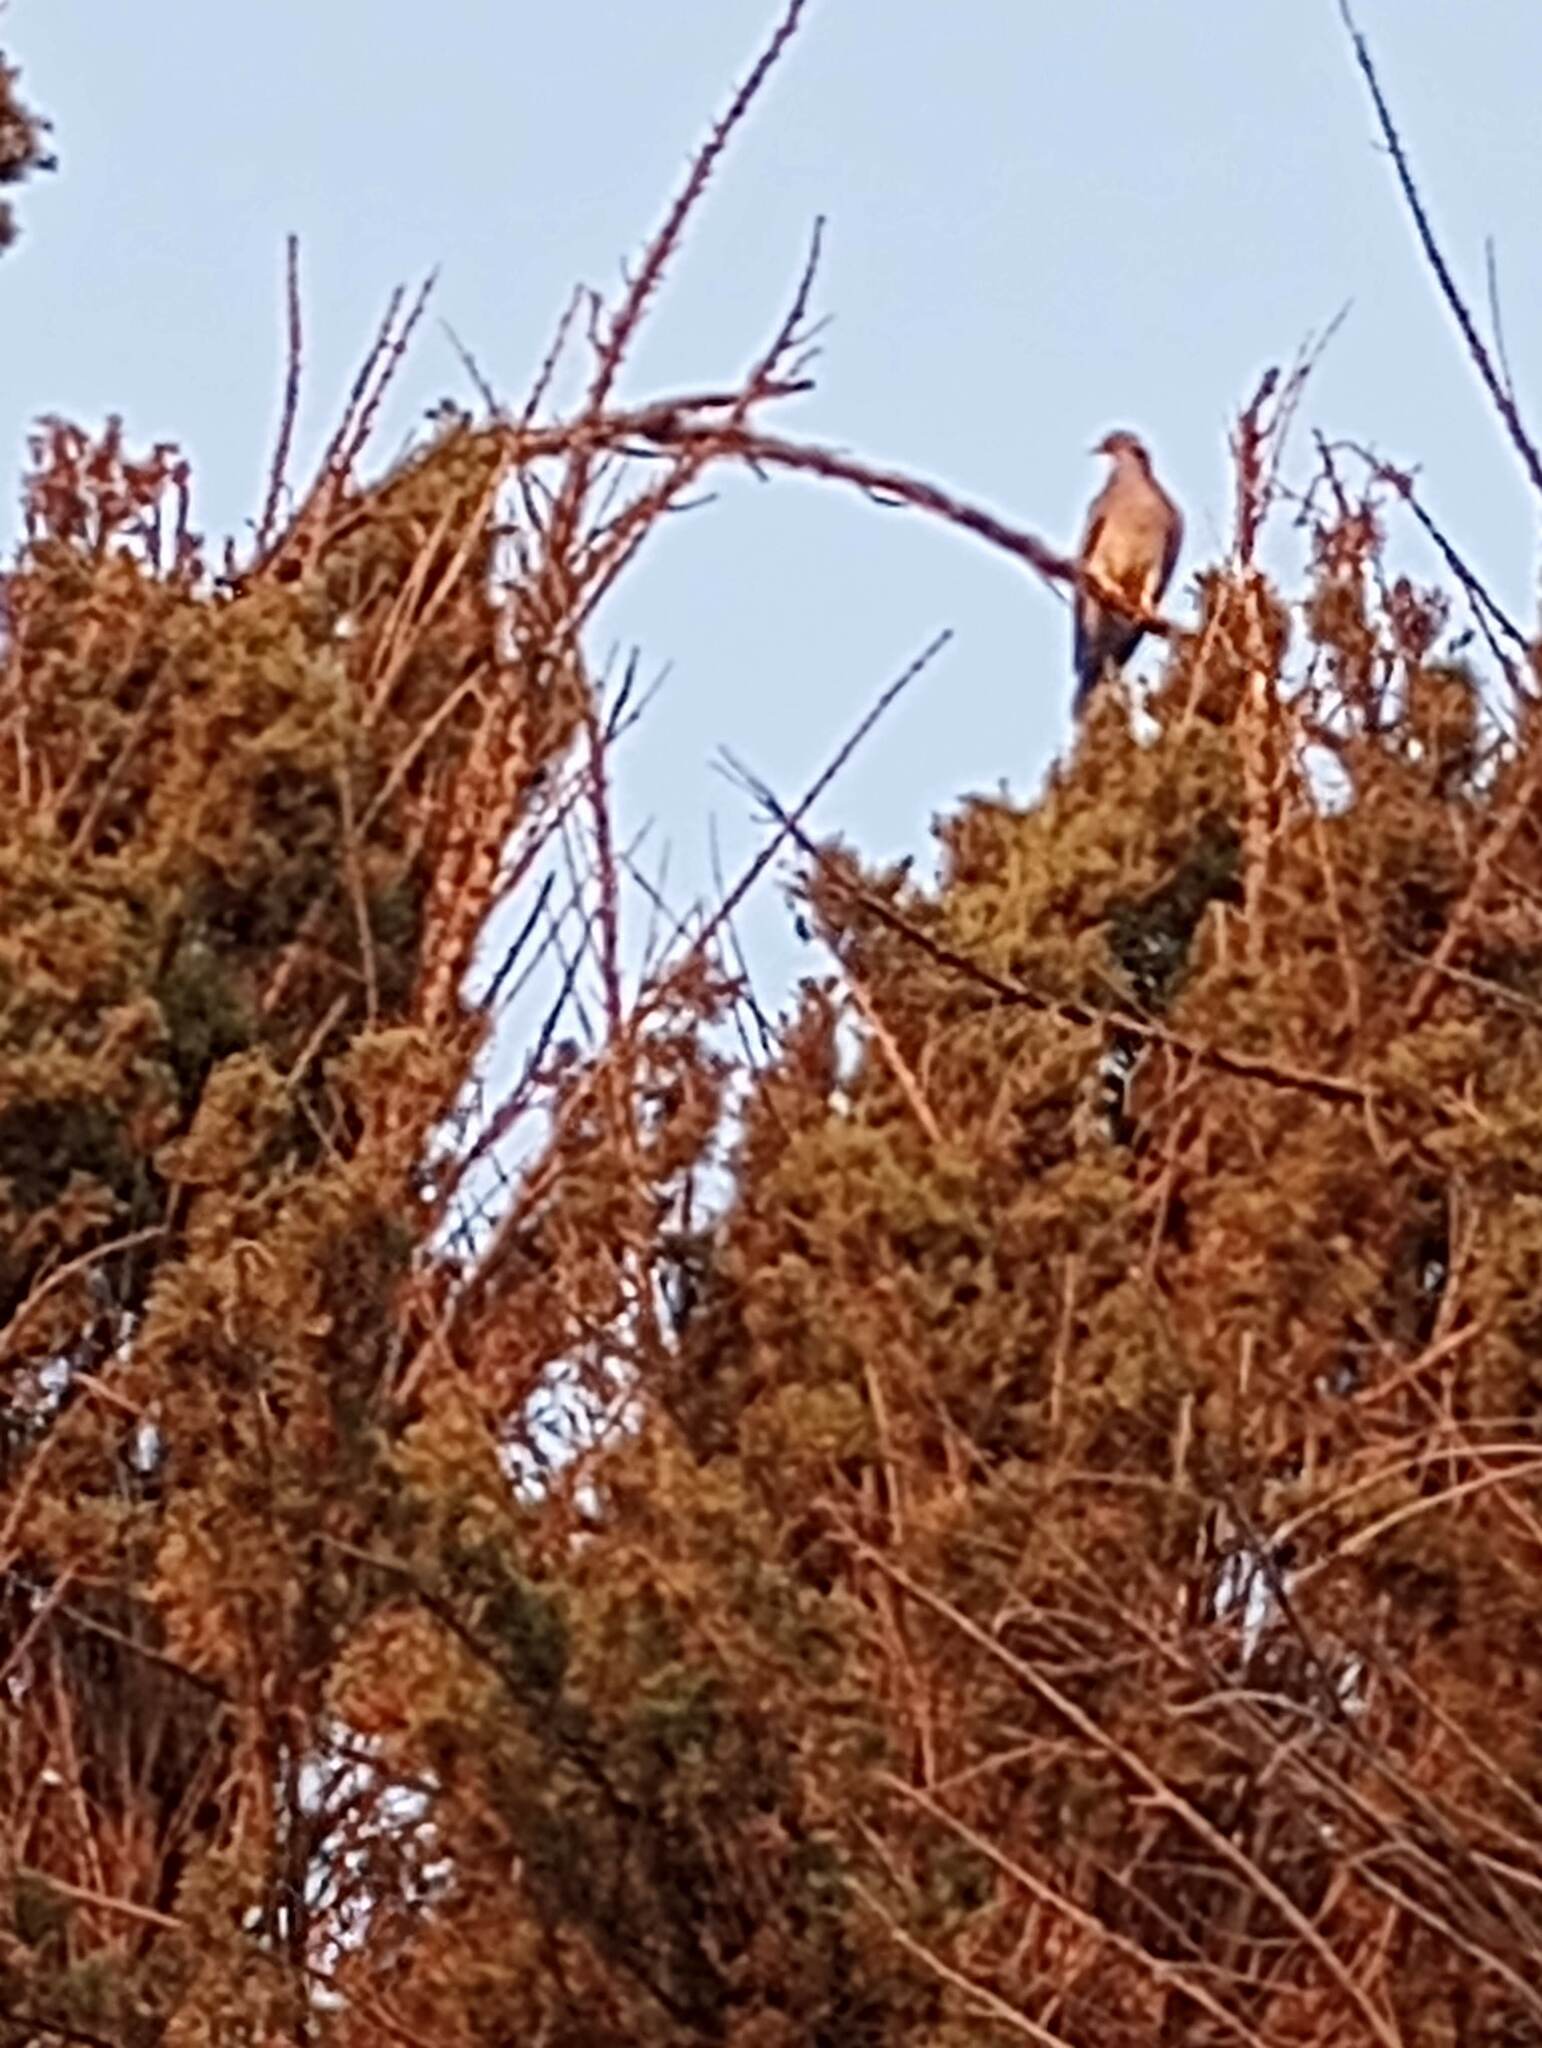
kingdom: Animalia
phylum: Chordata
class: Aves
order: Columbiformes
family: Columbidae
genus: Patagioenas
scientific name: Patagioenas fasciata
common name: Band-tailed pigeon
